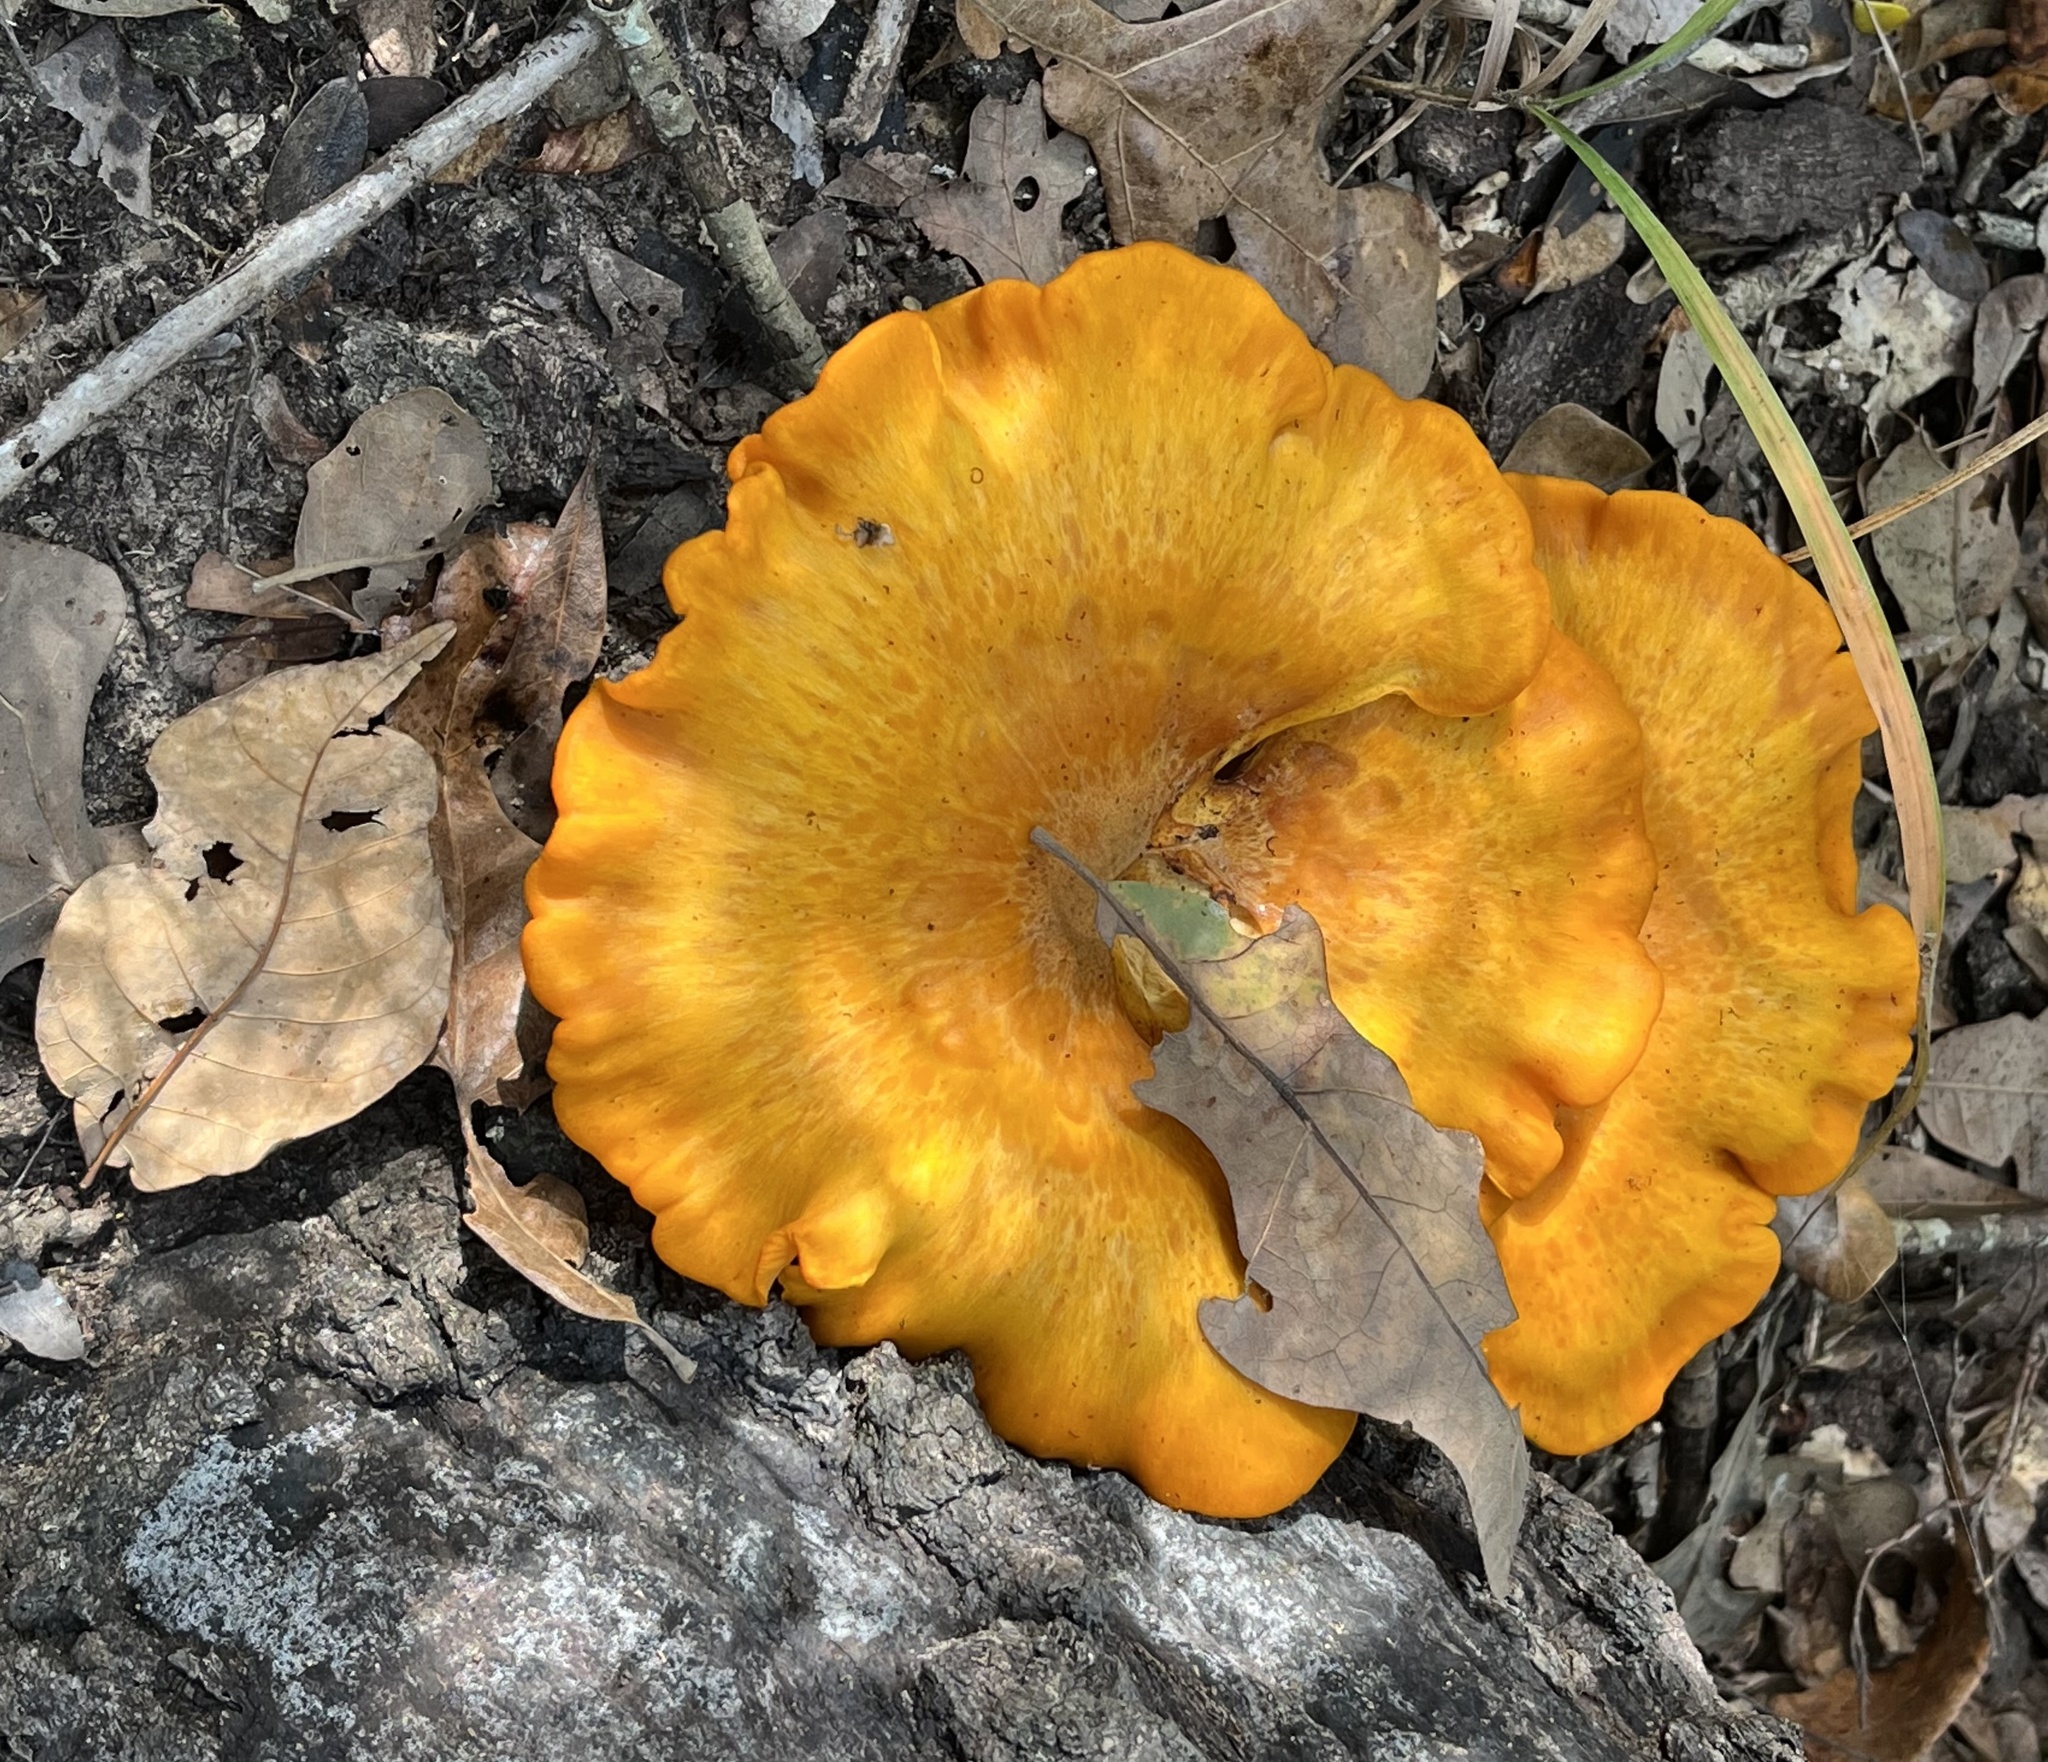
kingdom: Fungi
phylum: Basidiomycota
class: Agaricomycetes
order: Agaricales
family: Omphalotaceae
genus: Omphalotus
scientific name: Omphalotus subilludens
